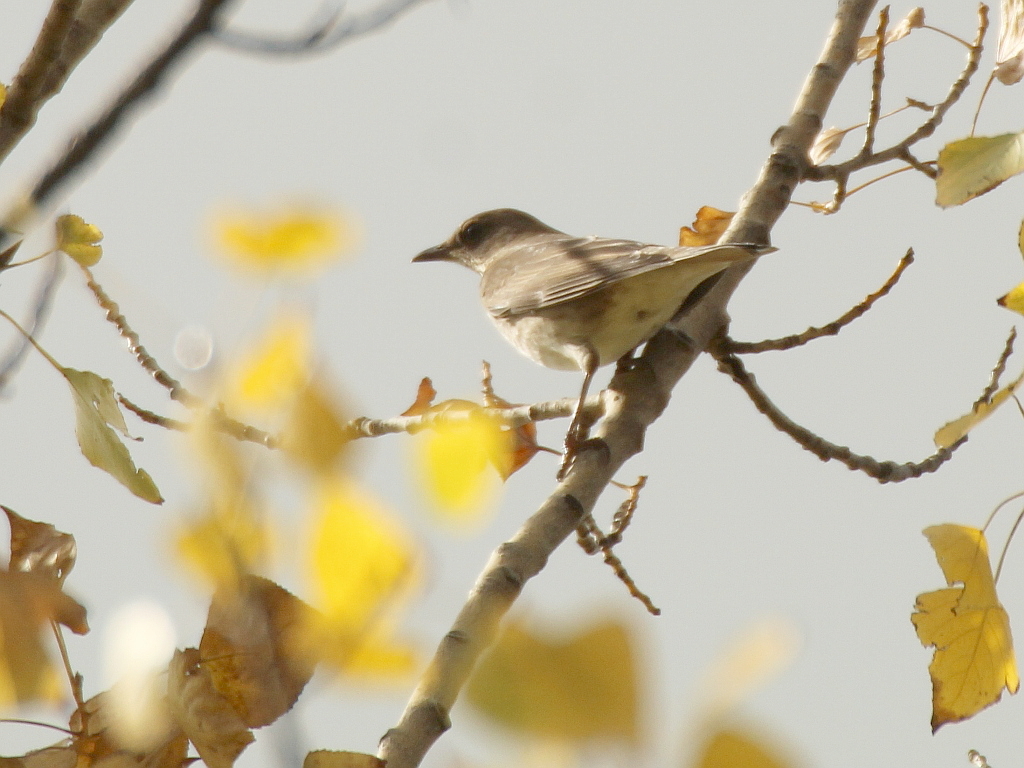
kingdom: Animalia
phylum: Chordata
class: Aves
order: Passeriformes
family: Turdidae
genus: Turdus
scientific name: Turdus atrogularis
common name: Black-throated thrush
